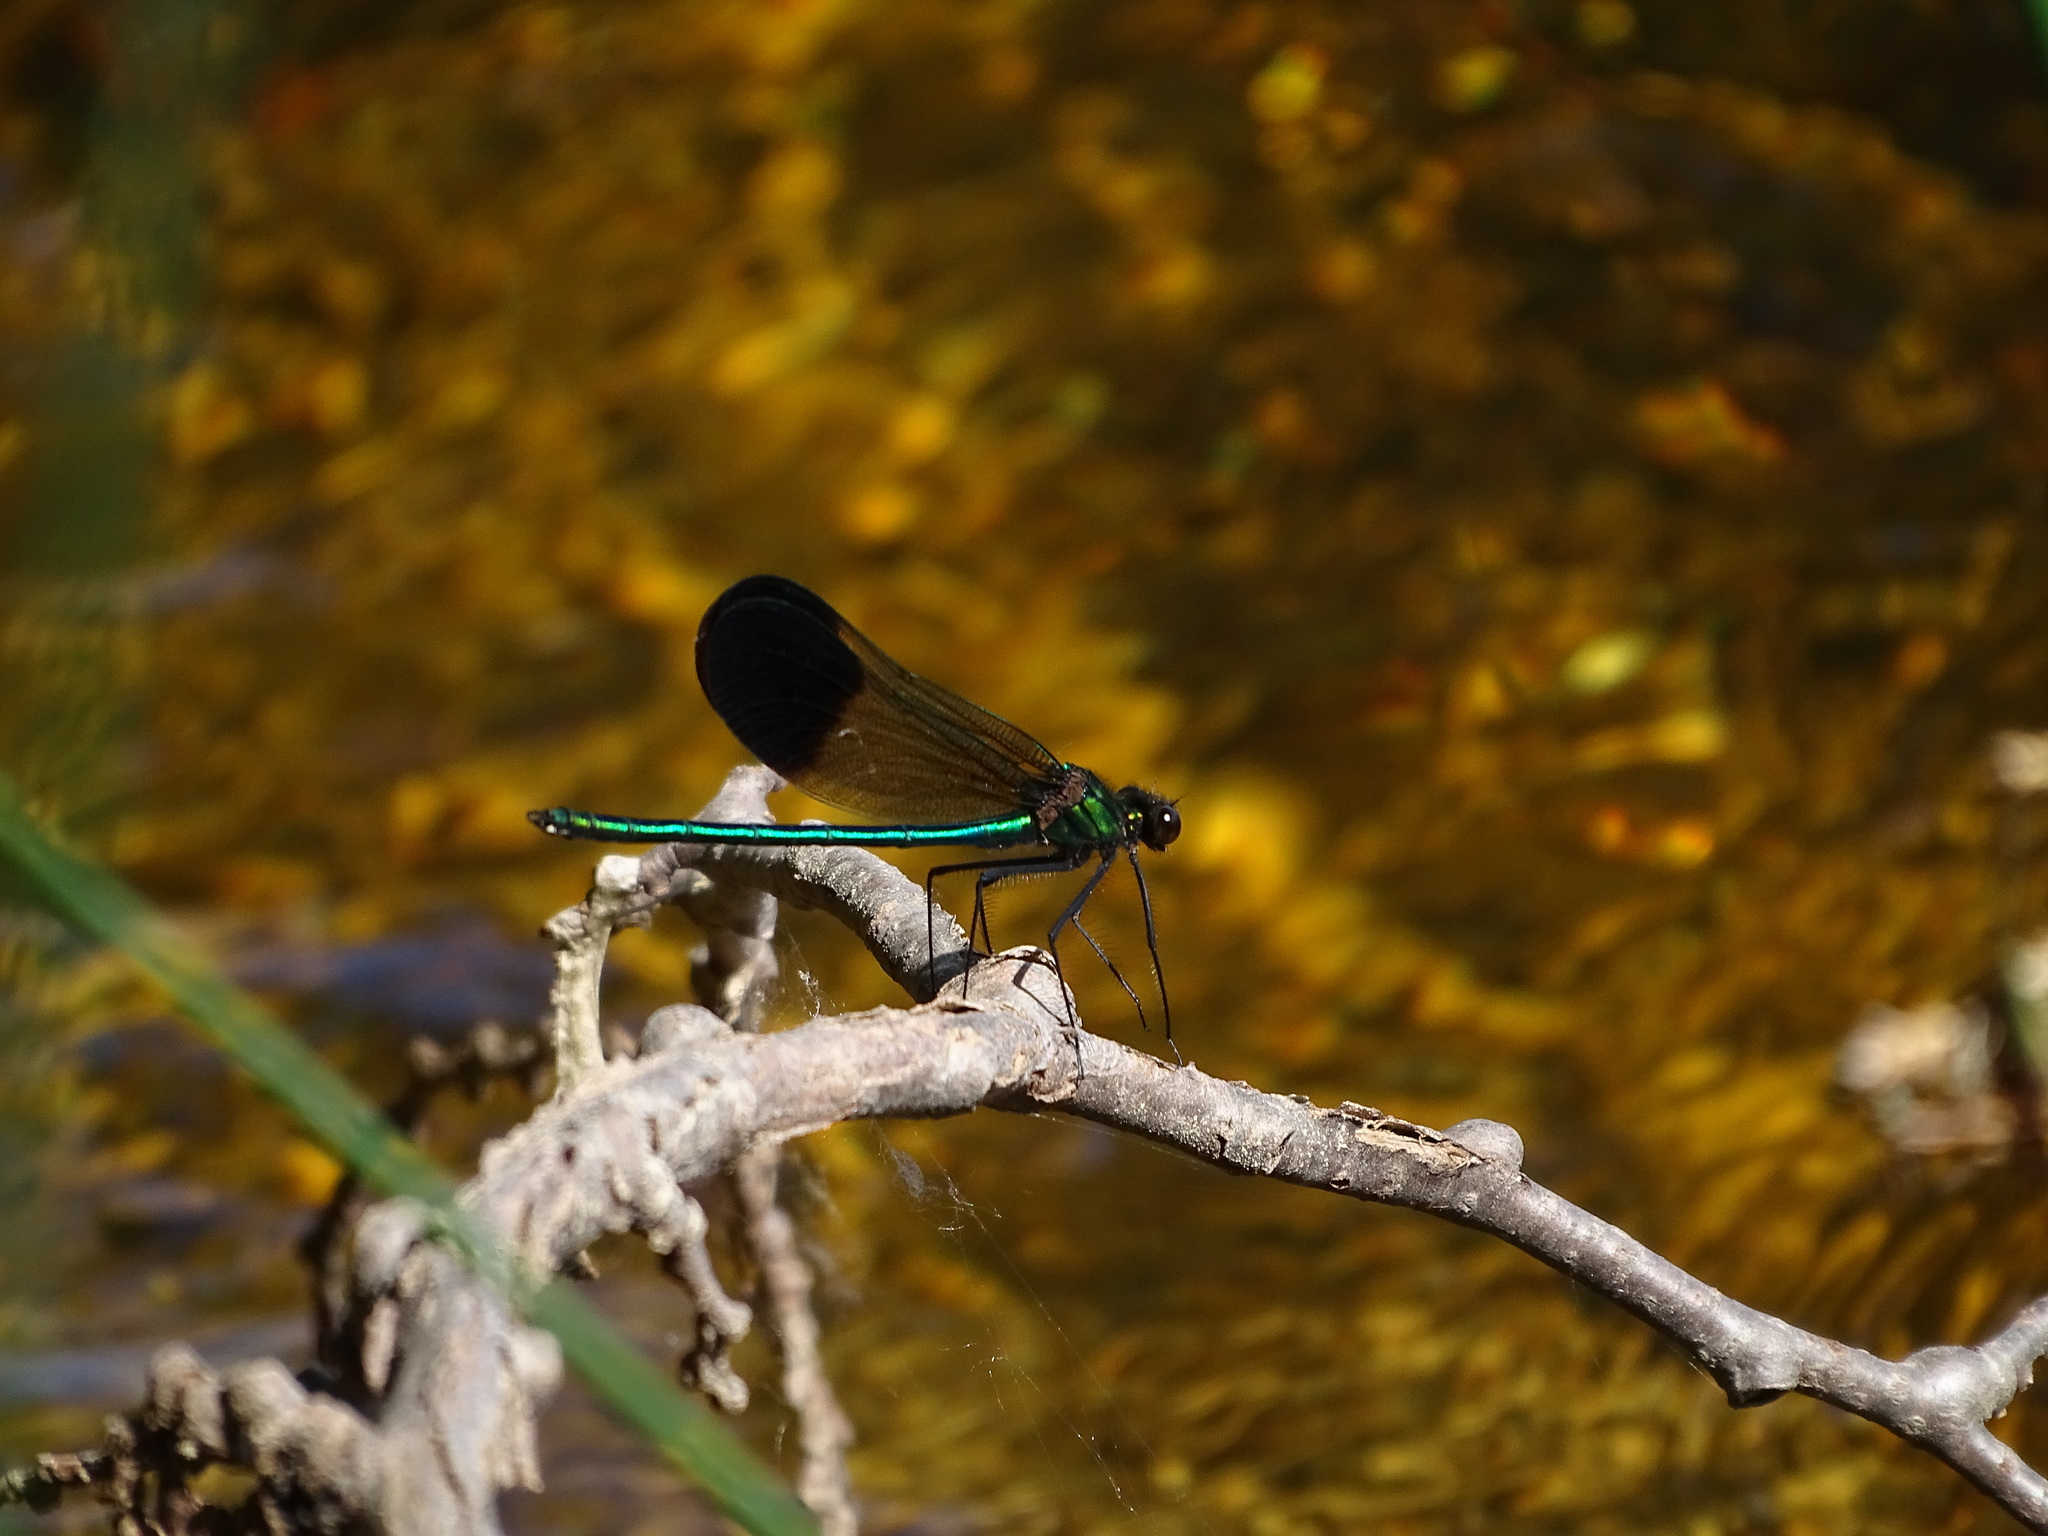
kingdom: Animalia
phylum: Arthropoda
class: Insecta
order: Odonata
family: Calopterygidae
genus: Calopteryx
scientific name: Calopteryx aequabilis
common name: River jewelwing
